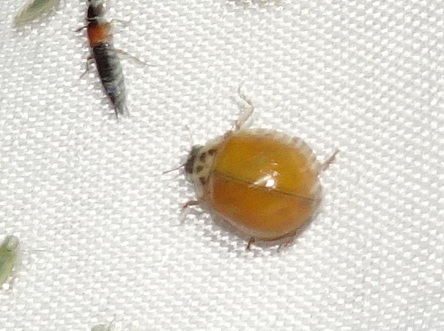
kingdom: Animalia
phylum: Arthropoda
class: Insecta
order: Coleoptera
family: Coccinellidae
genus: Harmonia
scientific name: Harmonia axyridis
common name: Harlequin ladybird
